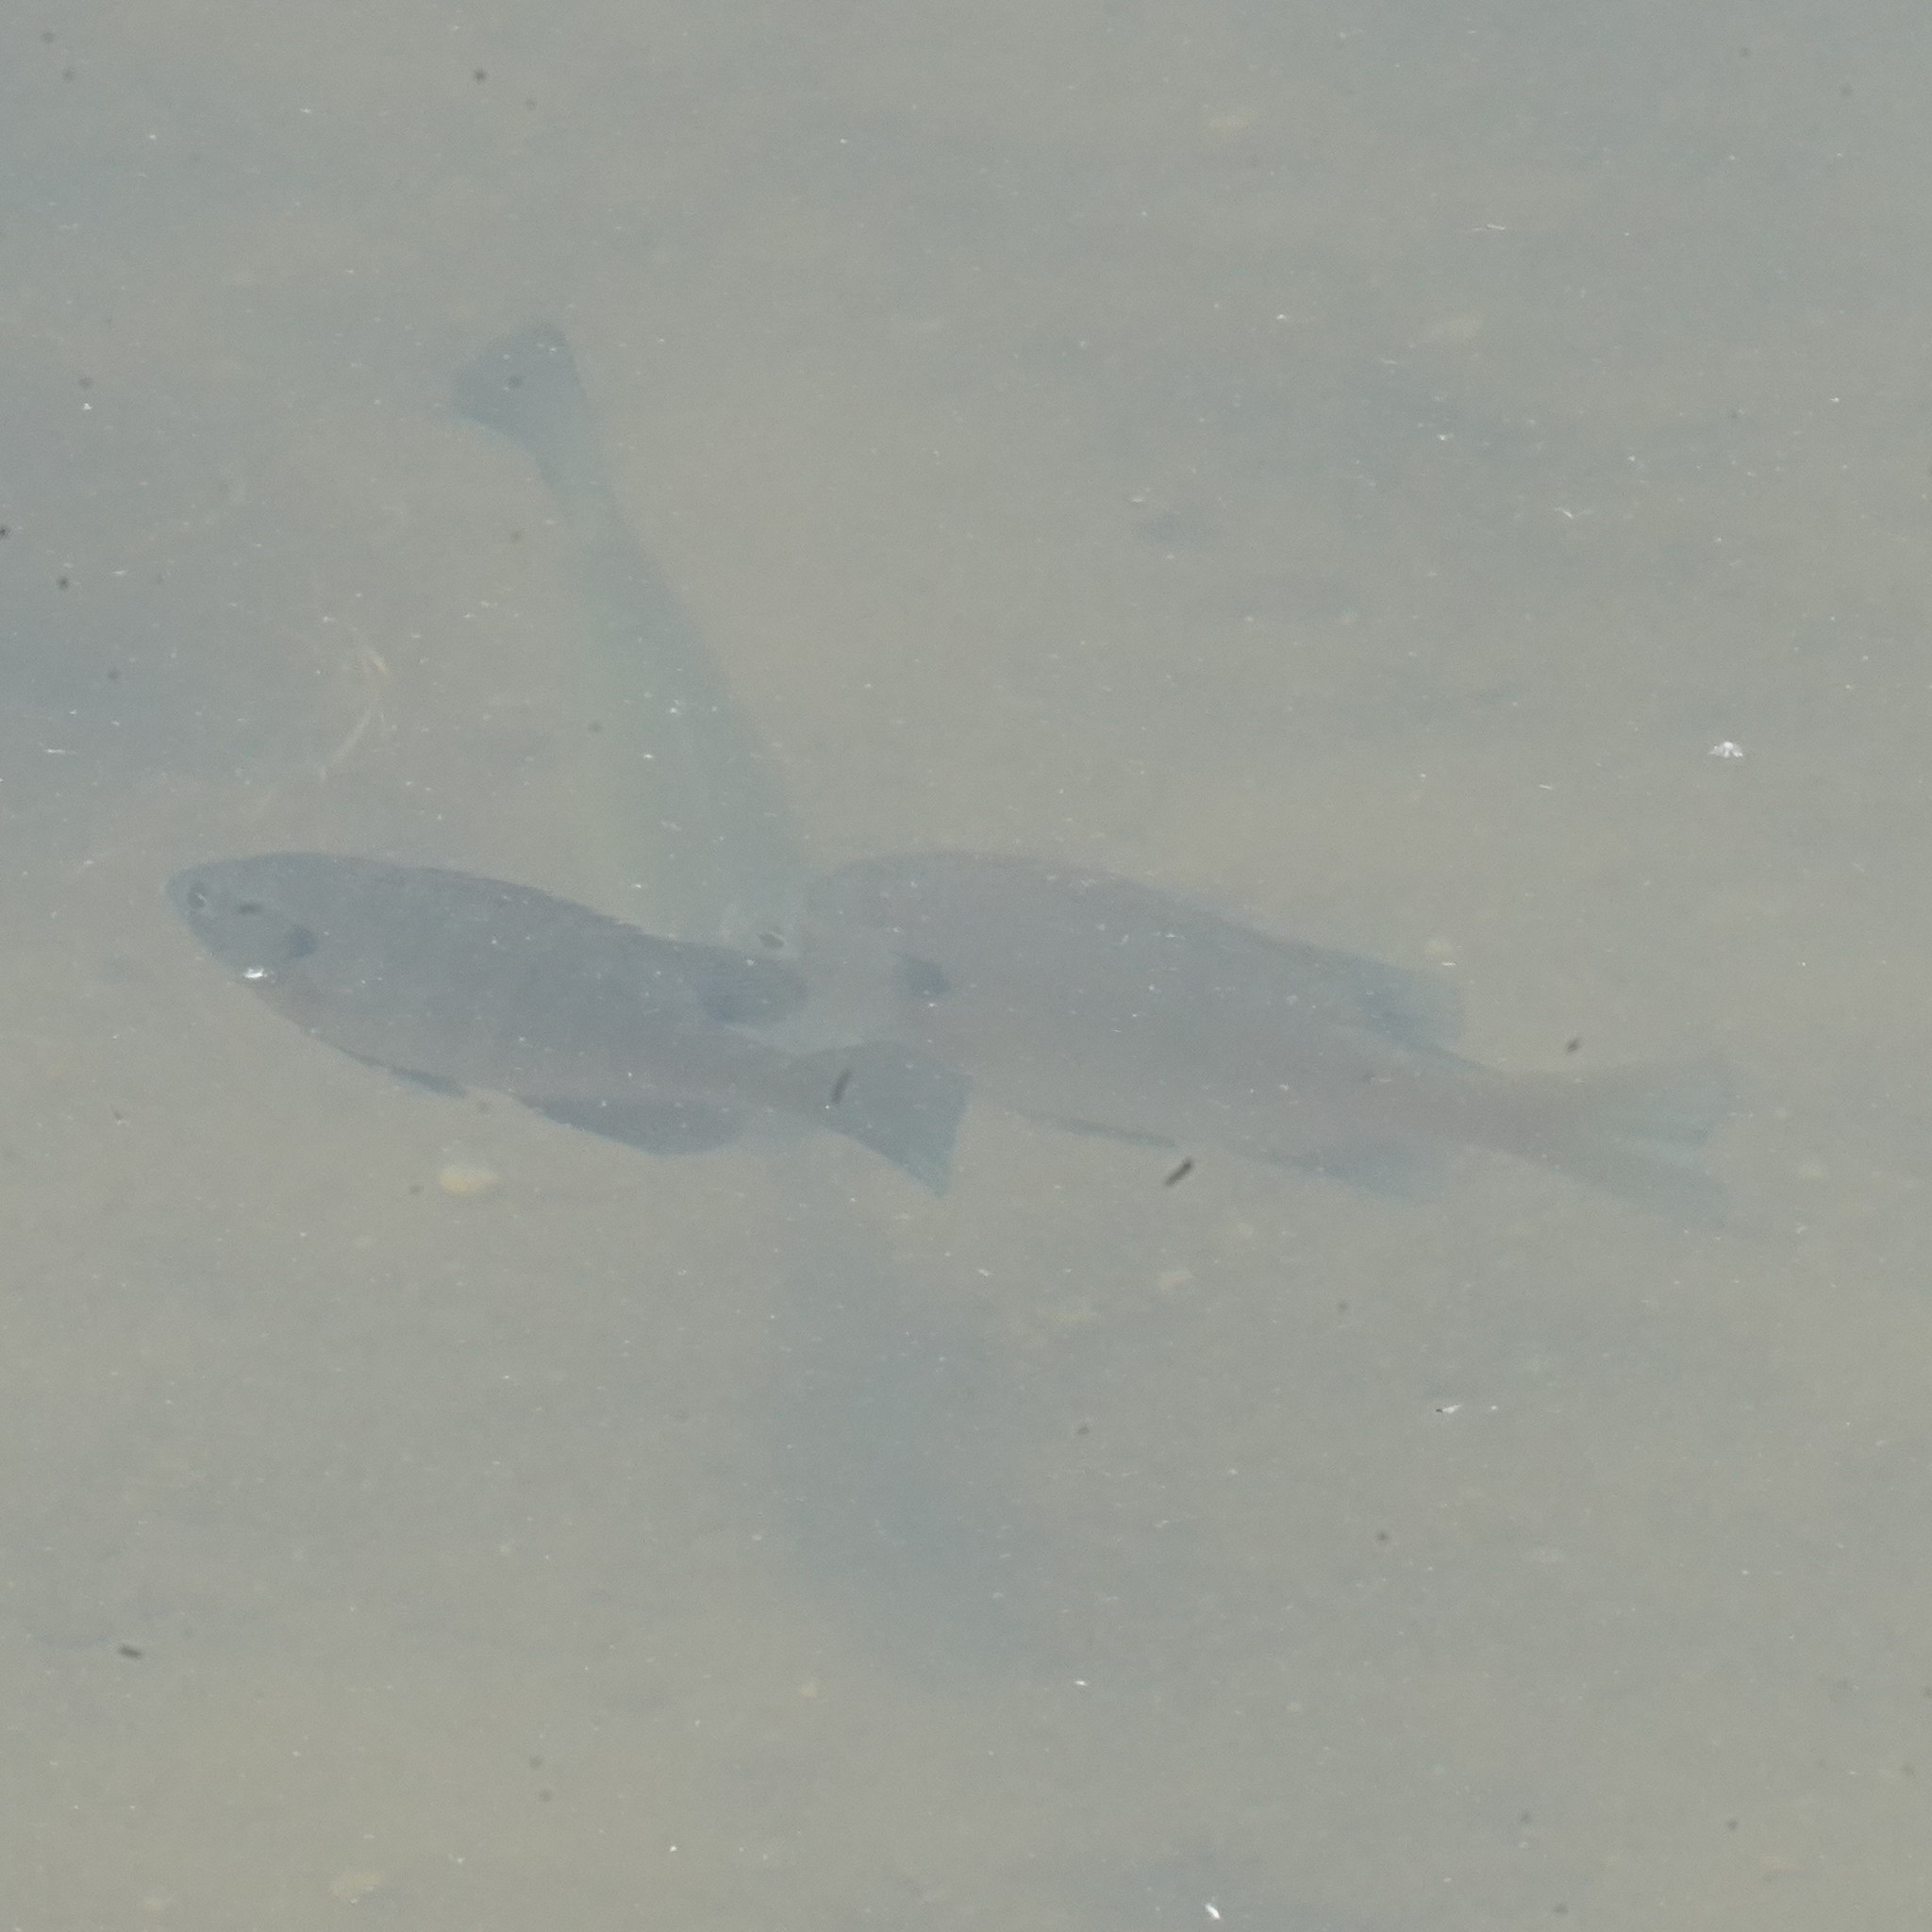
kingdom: Animalia
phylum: Chordata
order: Perciformes
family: Centrarchidae
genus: Lepomis
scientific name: Lepomis macrochirus
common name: Bluegill
